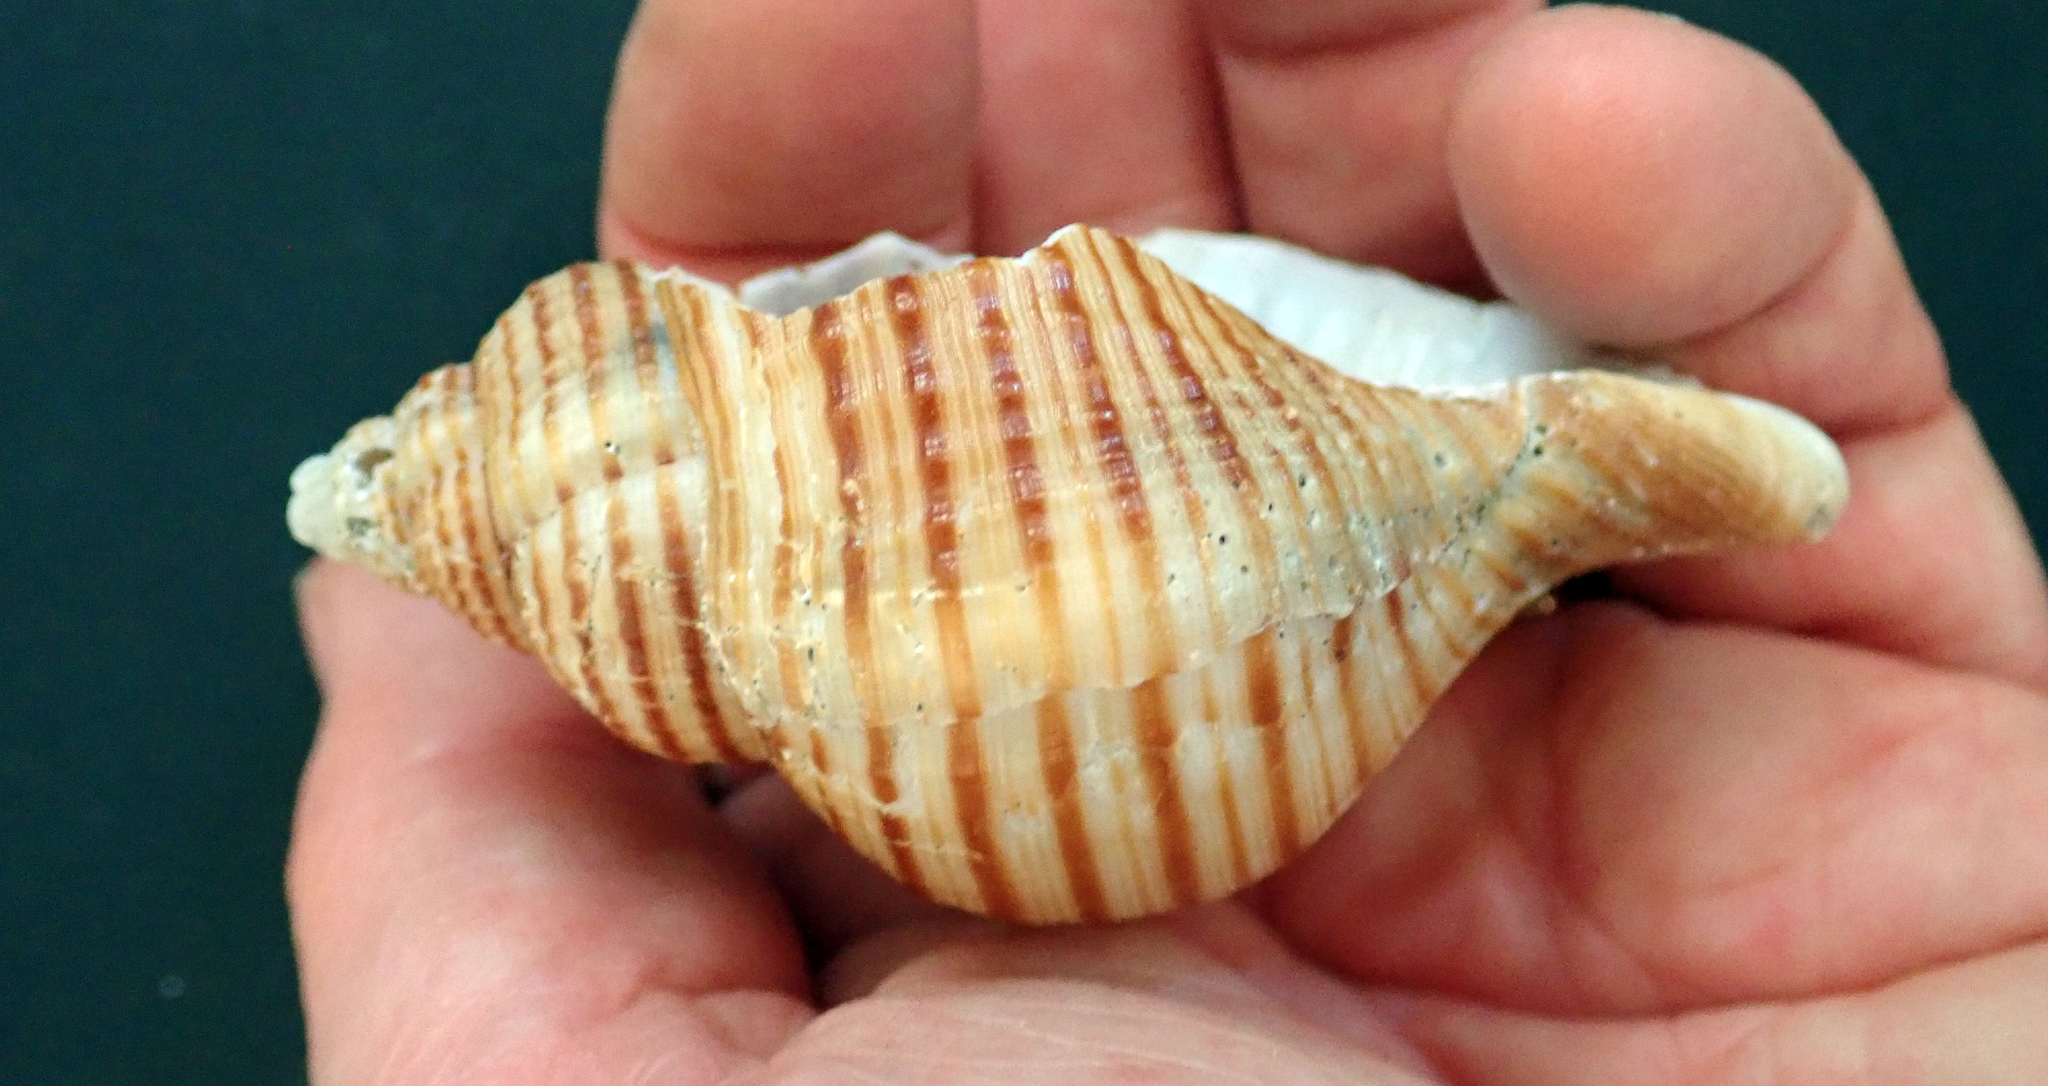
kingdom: Animalia
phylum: Mollusca
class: Gastropoda
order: Littorinimorpha
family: Cymatiidae
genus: Argobuccinum
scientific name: Argobuccinum pustulosum
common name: Pustular triton
